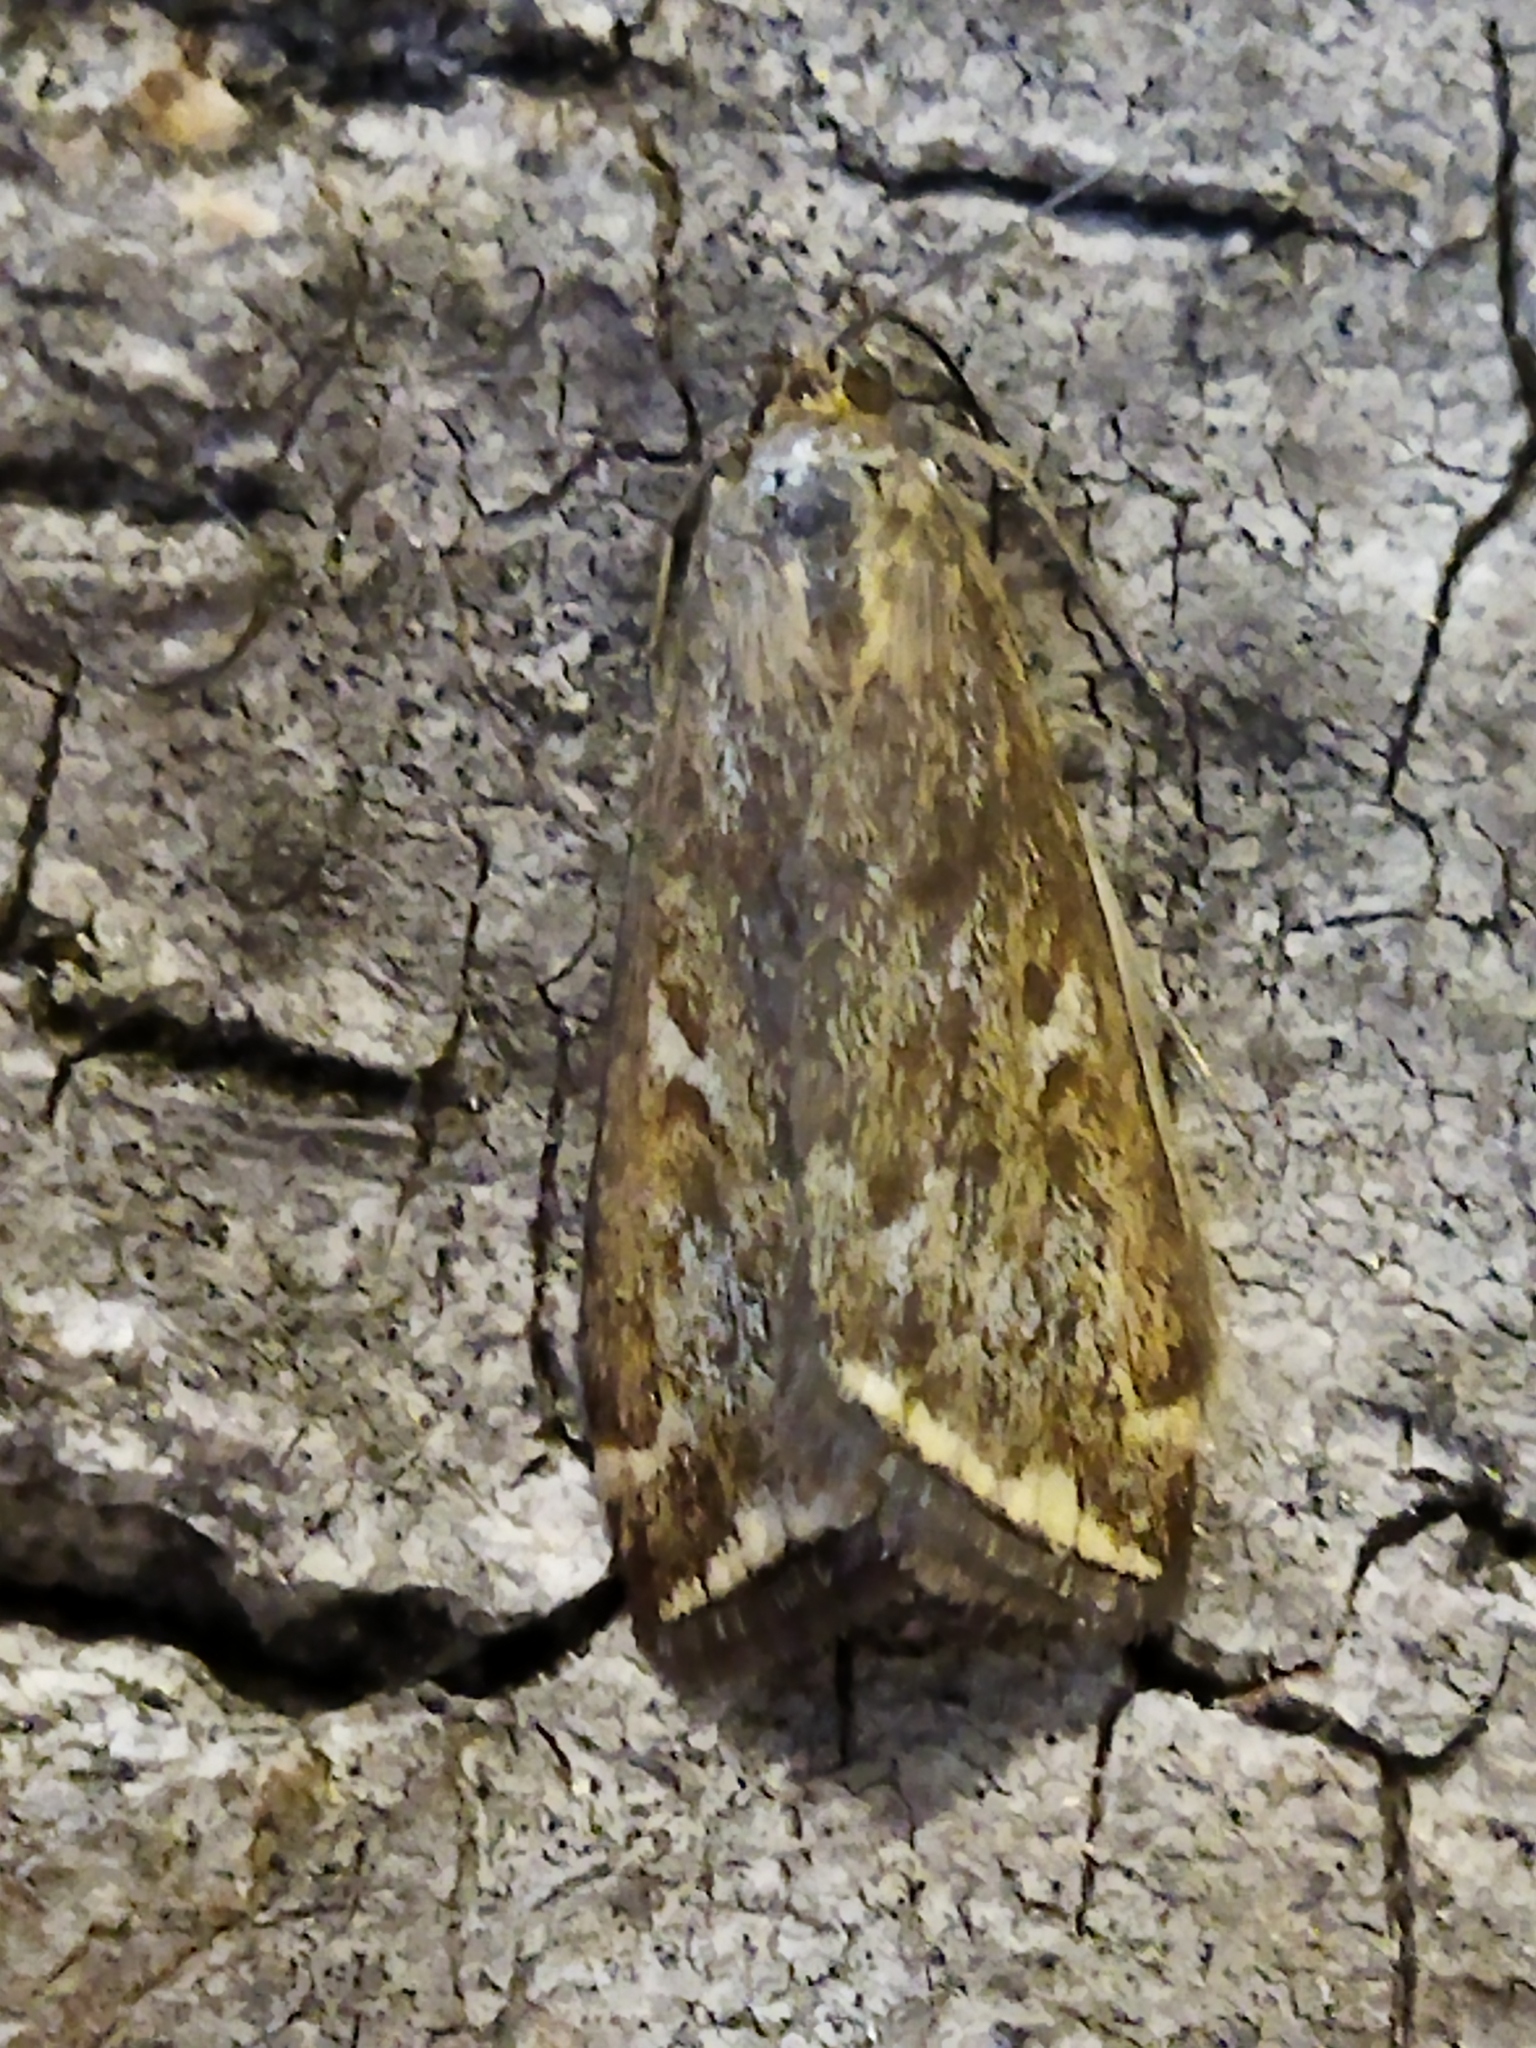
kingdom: Animalia
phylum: Arthropoda
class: Insecta
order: Lepidoptera
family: Crambidae
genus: Loxostege
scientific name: Loxostege sticticalis
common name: Crambid moth
